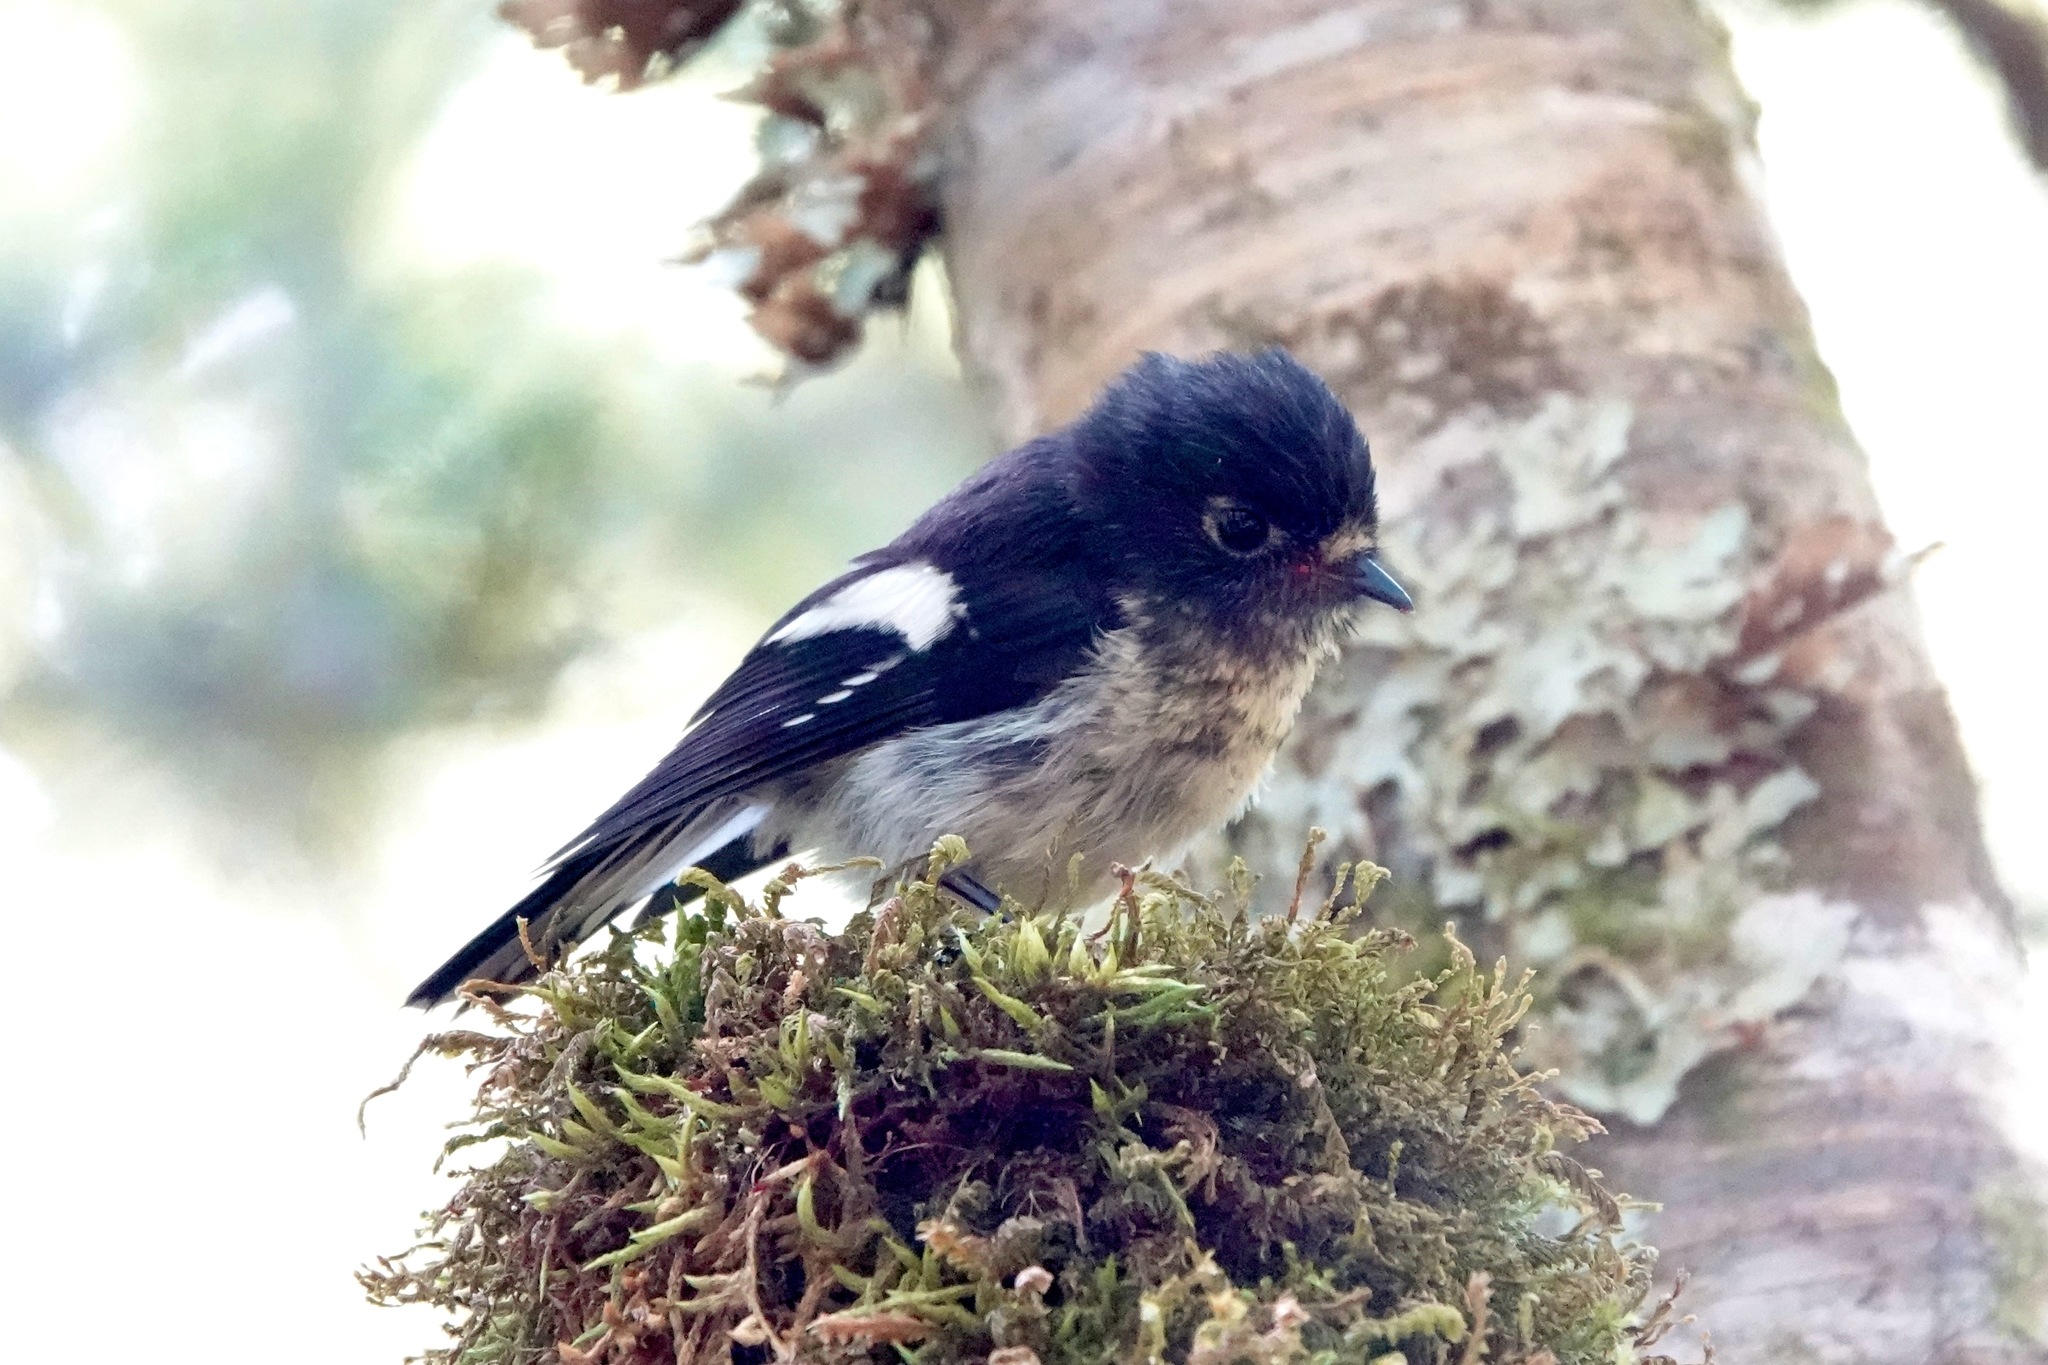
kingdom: Animalia
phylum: Chordata
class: Aves
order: Passeriformes
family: Petroicidae
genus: Petroica
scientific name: Petroica macrocephala
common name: Tomtit
